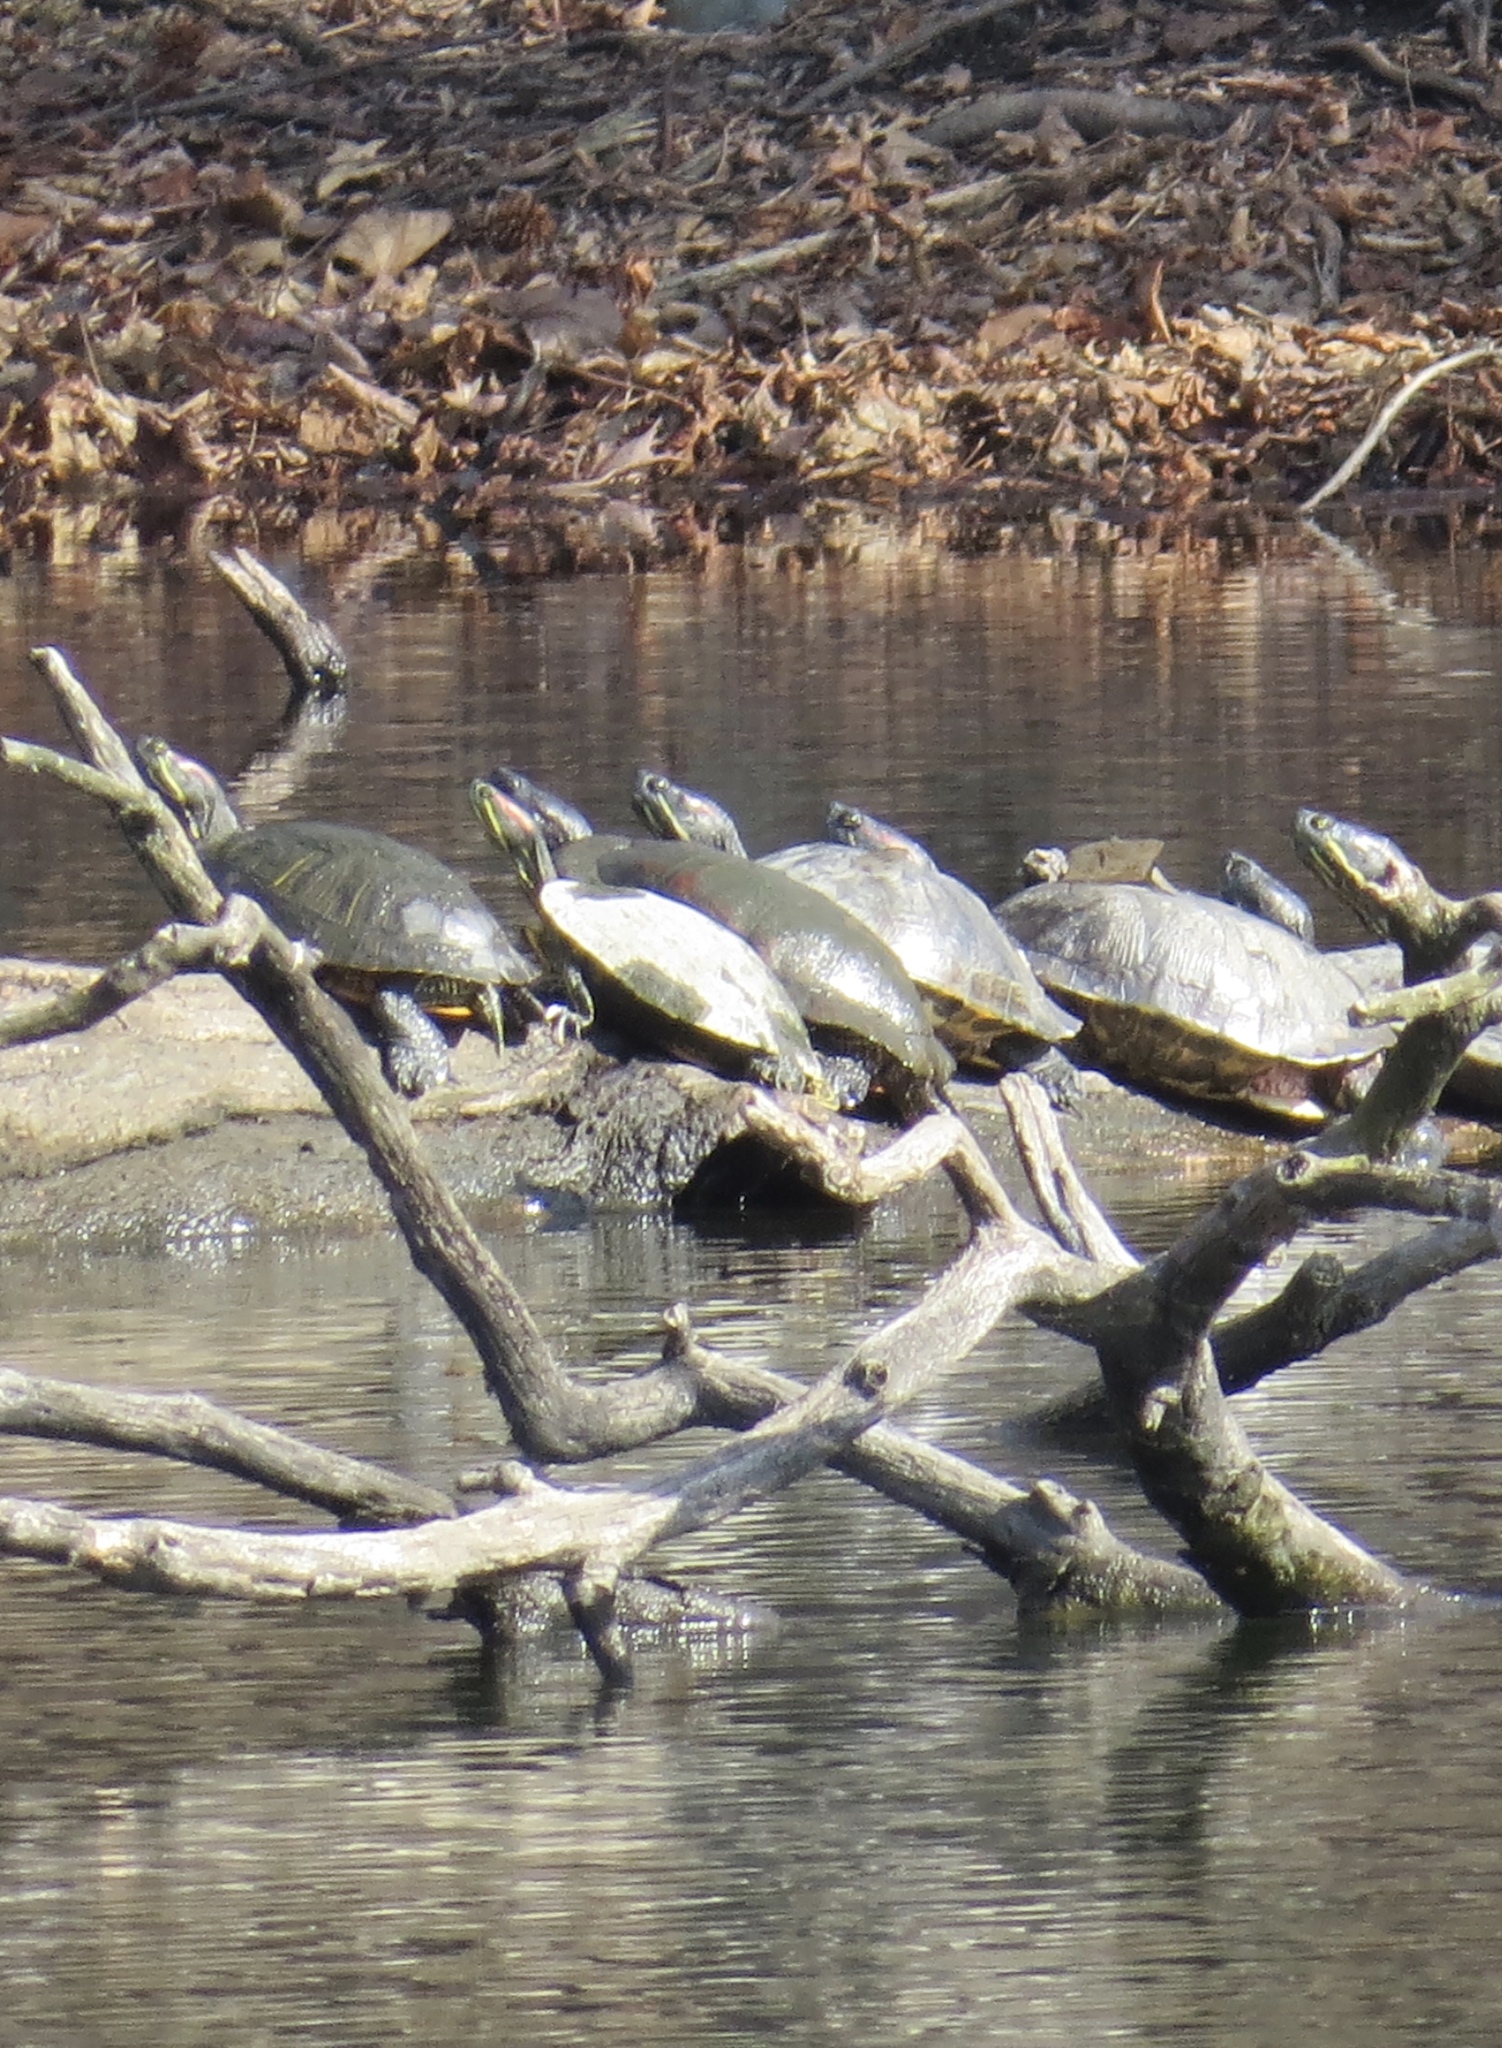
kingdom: Animalia
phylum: Chordata
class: Testudines
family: Emydidae
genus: Trachemys
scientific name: Trachemys scripta
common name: Slider
